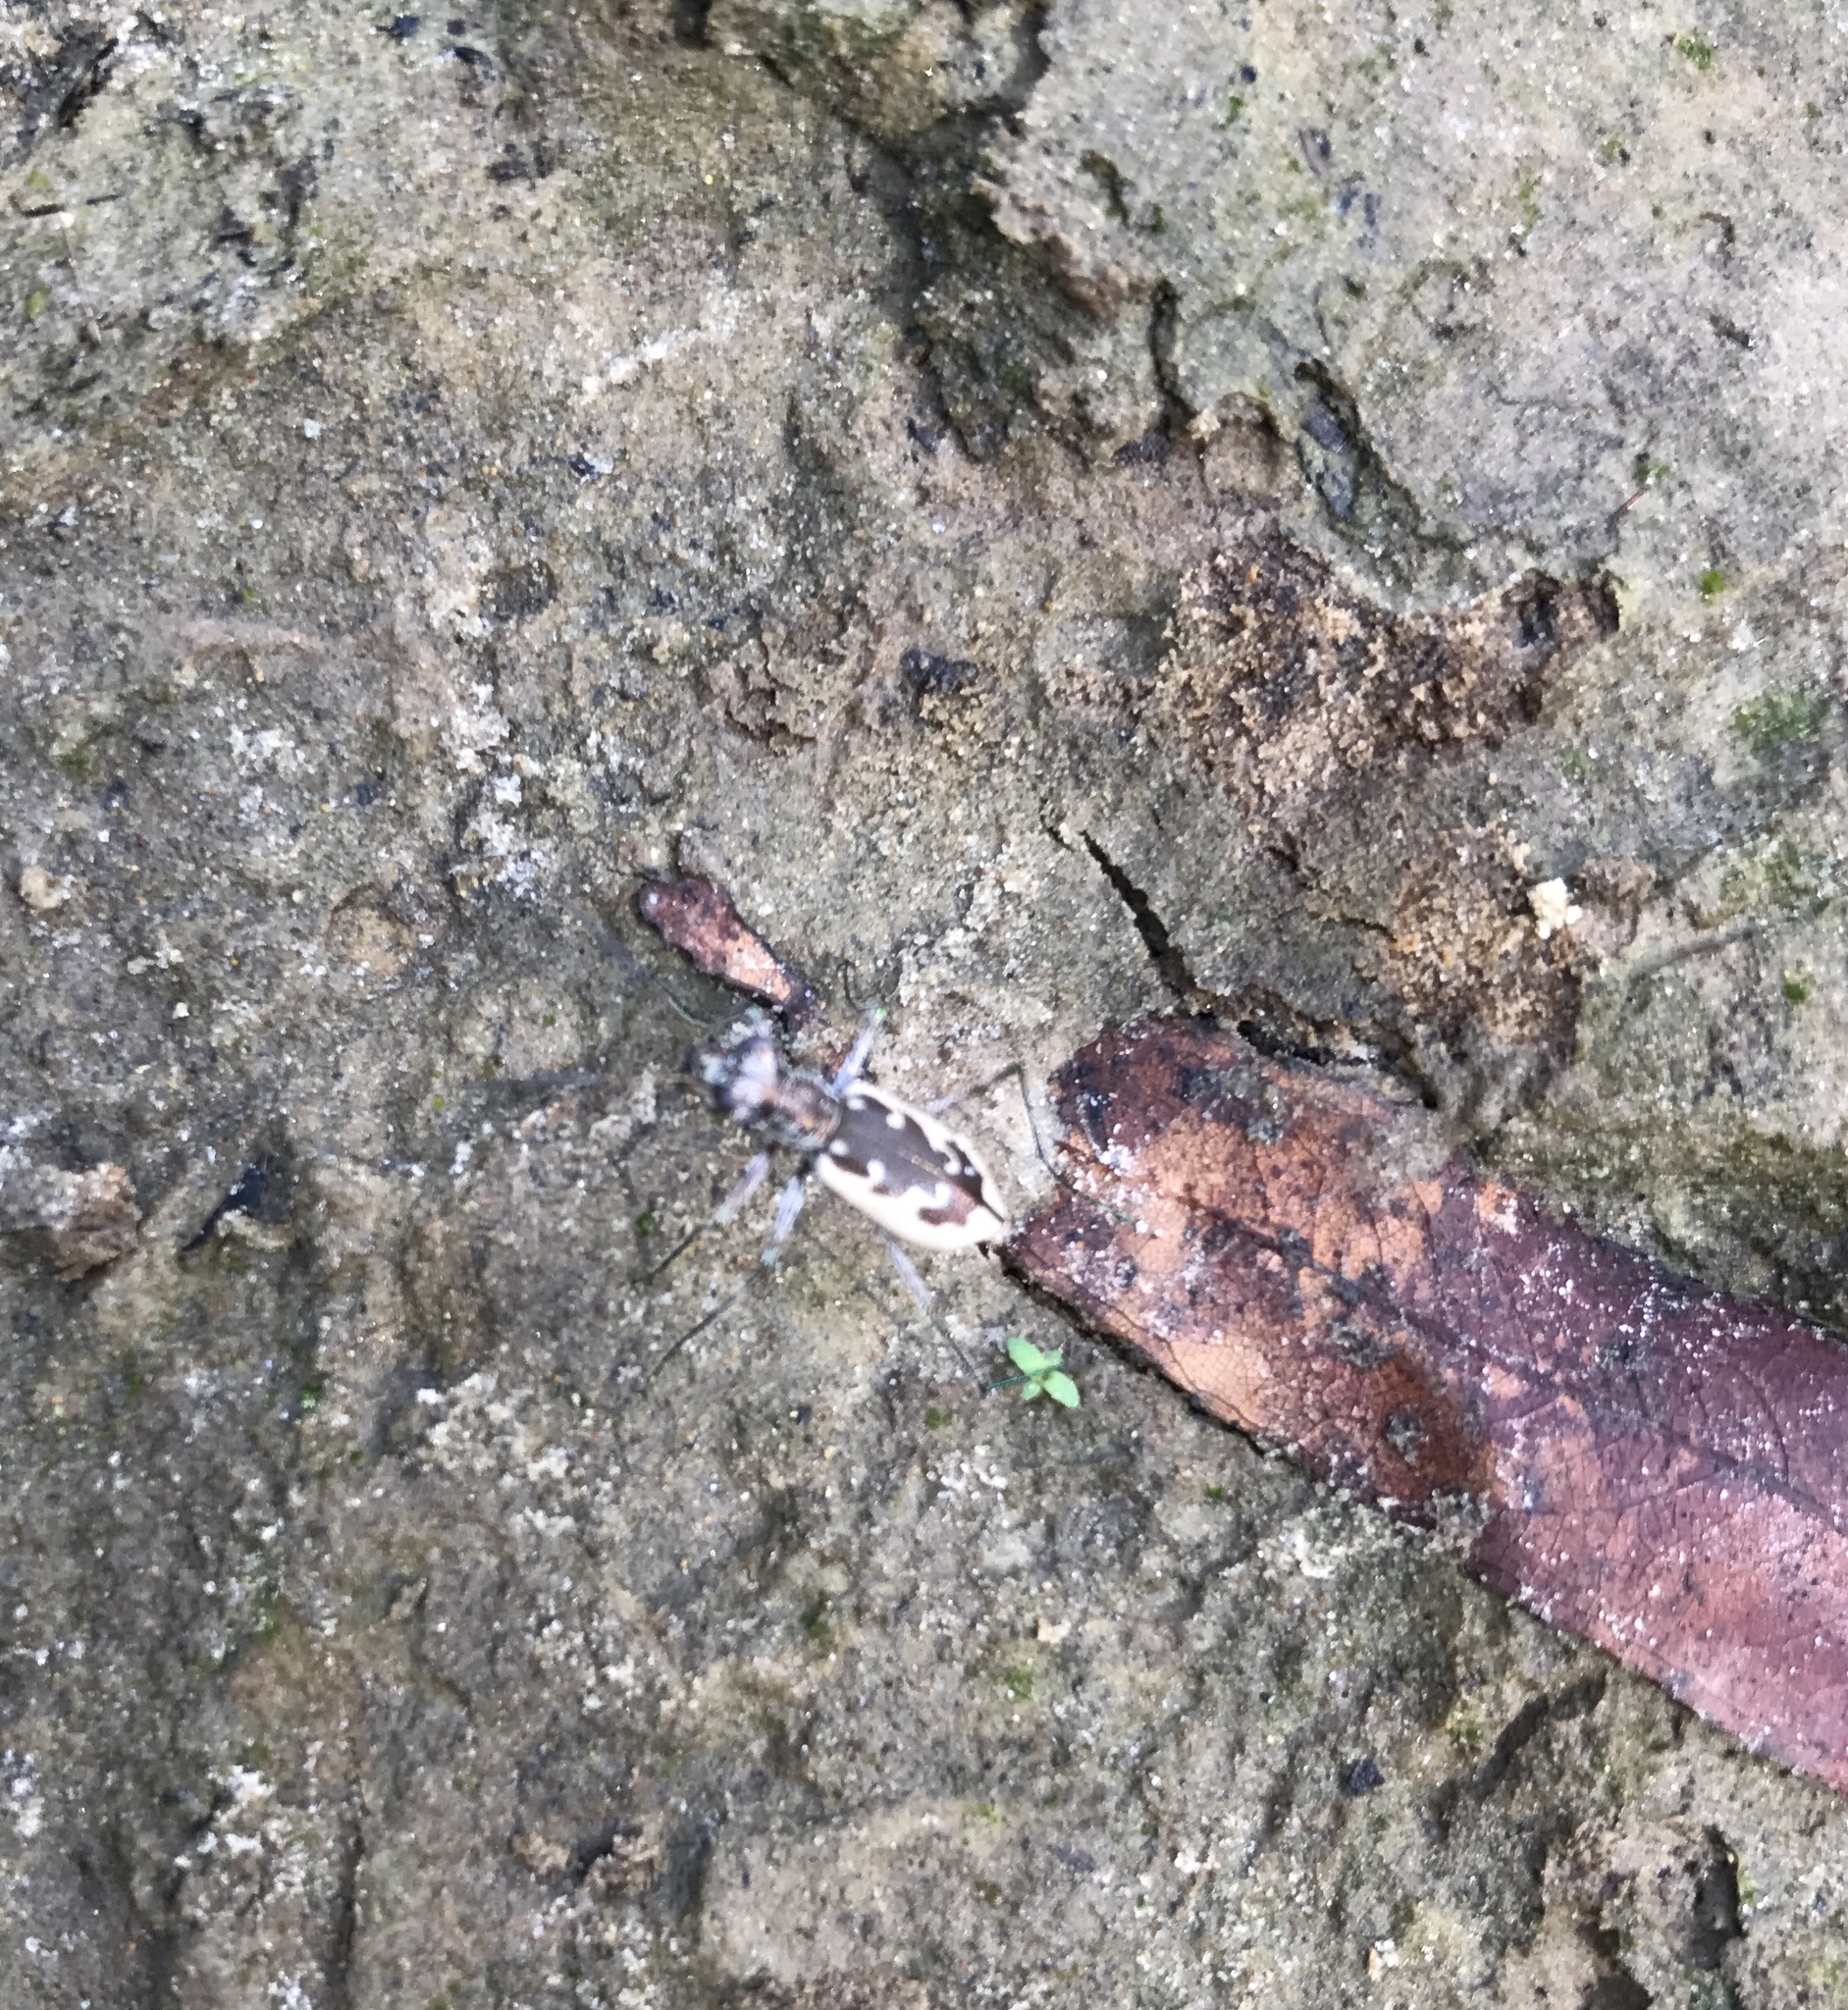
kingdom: Animalia
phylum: Arthropoda
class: Insecta
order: Coleoptera
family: Carabidae
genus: Ellipsoptera
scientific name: Ellipsoptera wapleri
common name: White-sand tiger beetle
